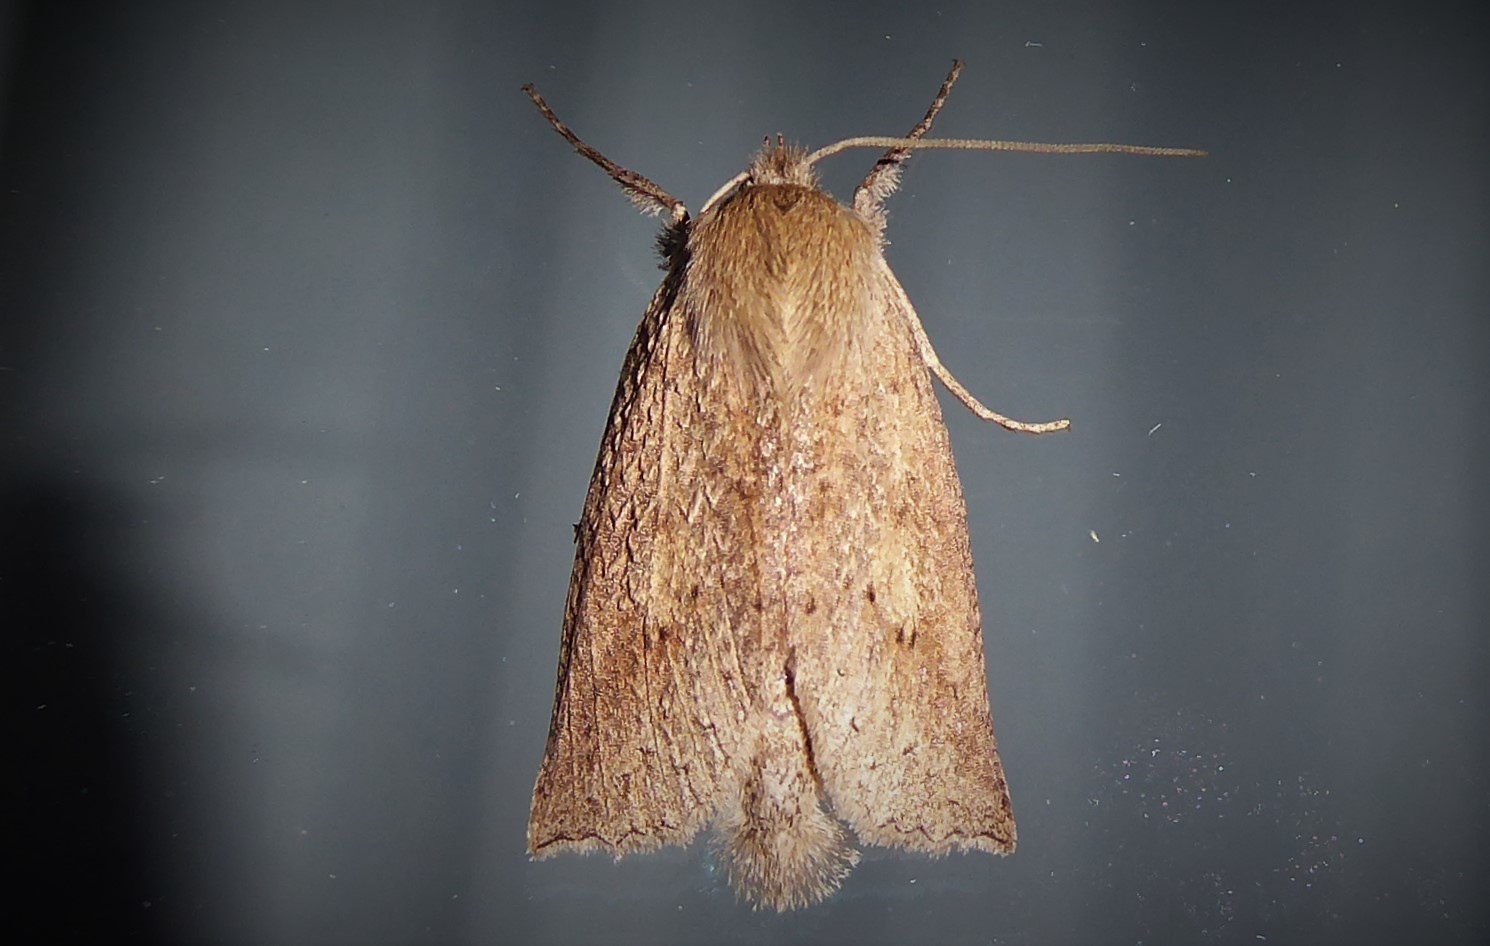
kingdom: Animalia
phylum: Arthropoda
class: Insecta
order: Lepidoptera
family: Geometridae
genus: Declana
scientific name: Declana leptomera
